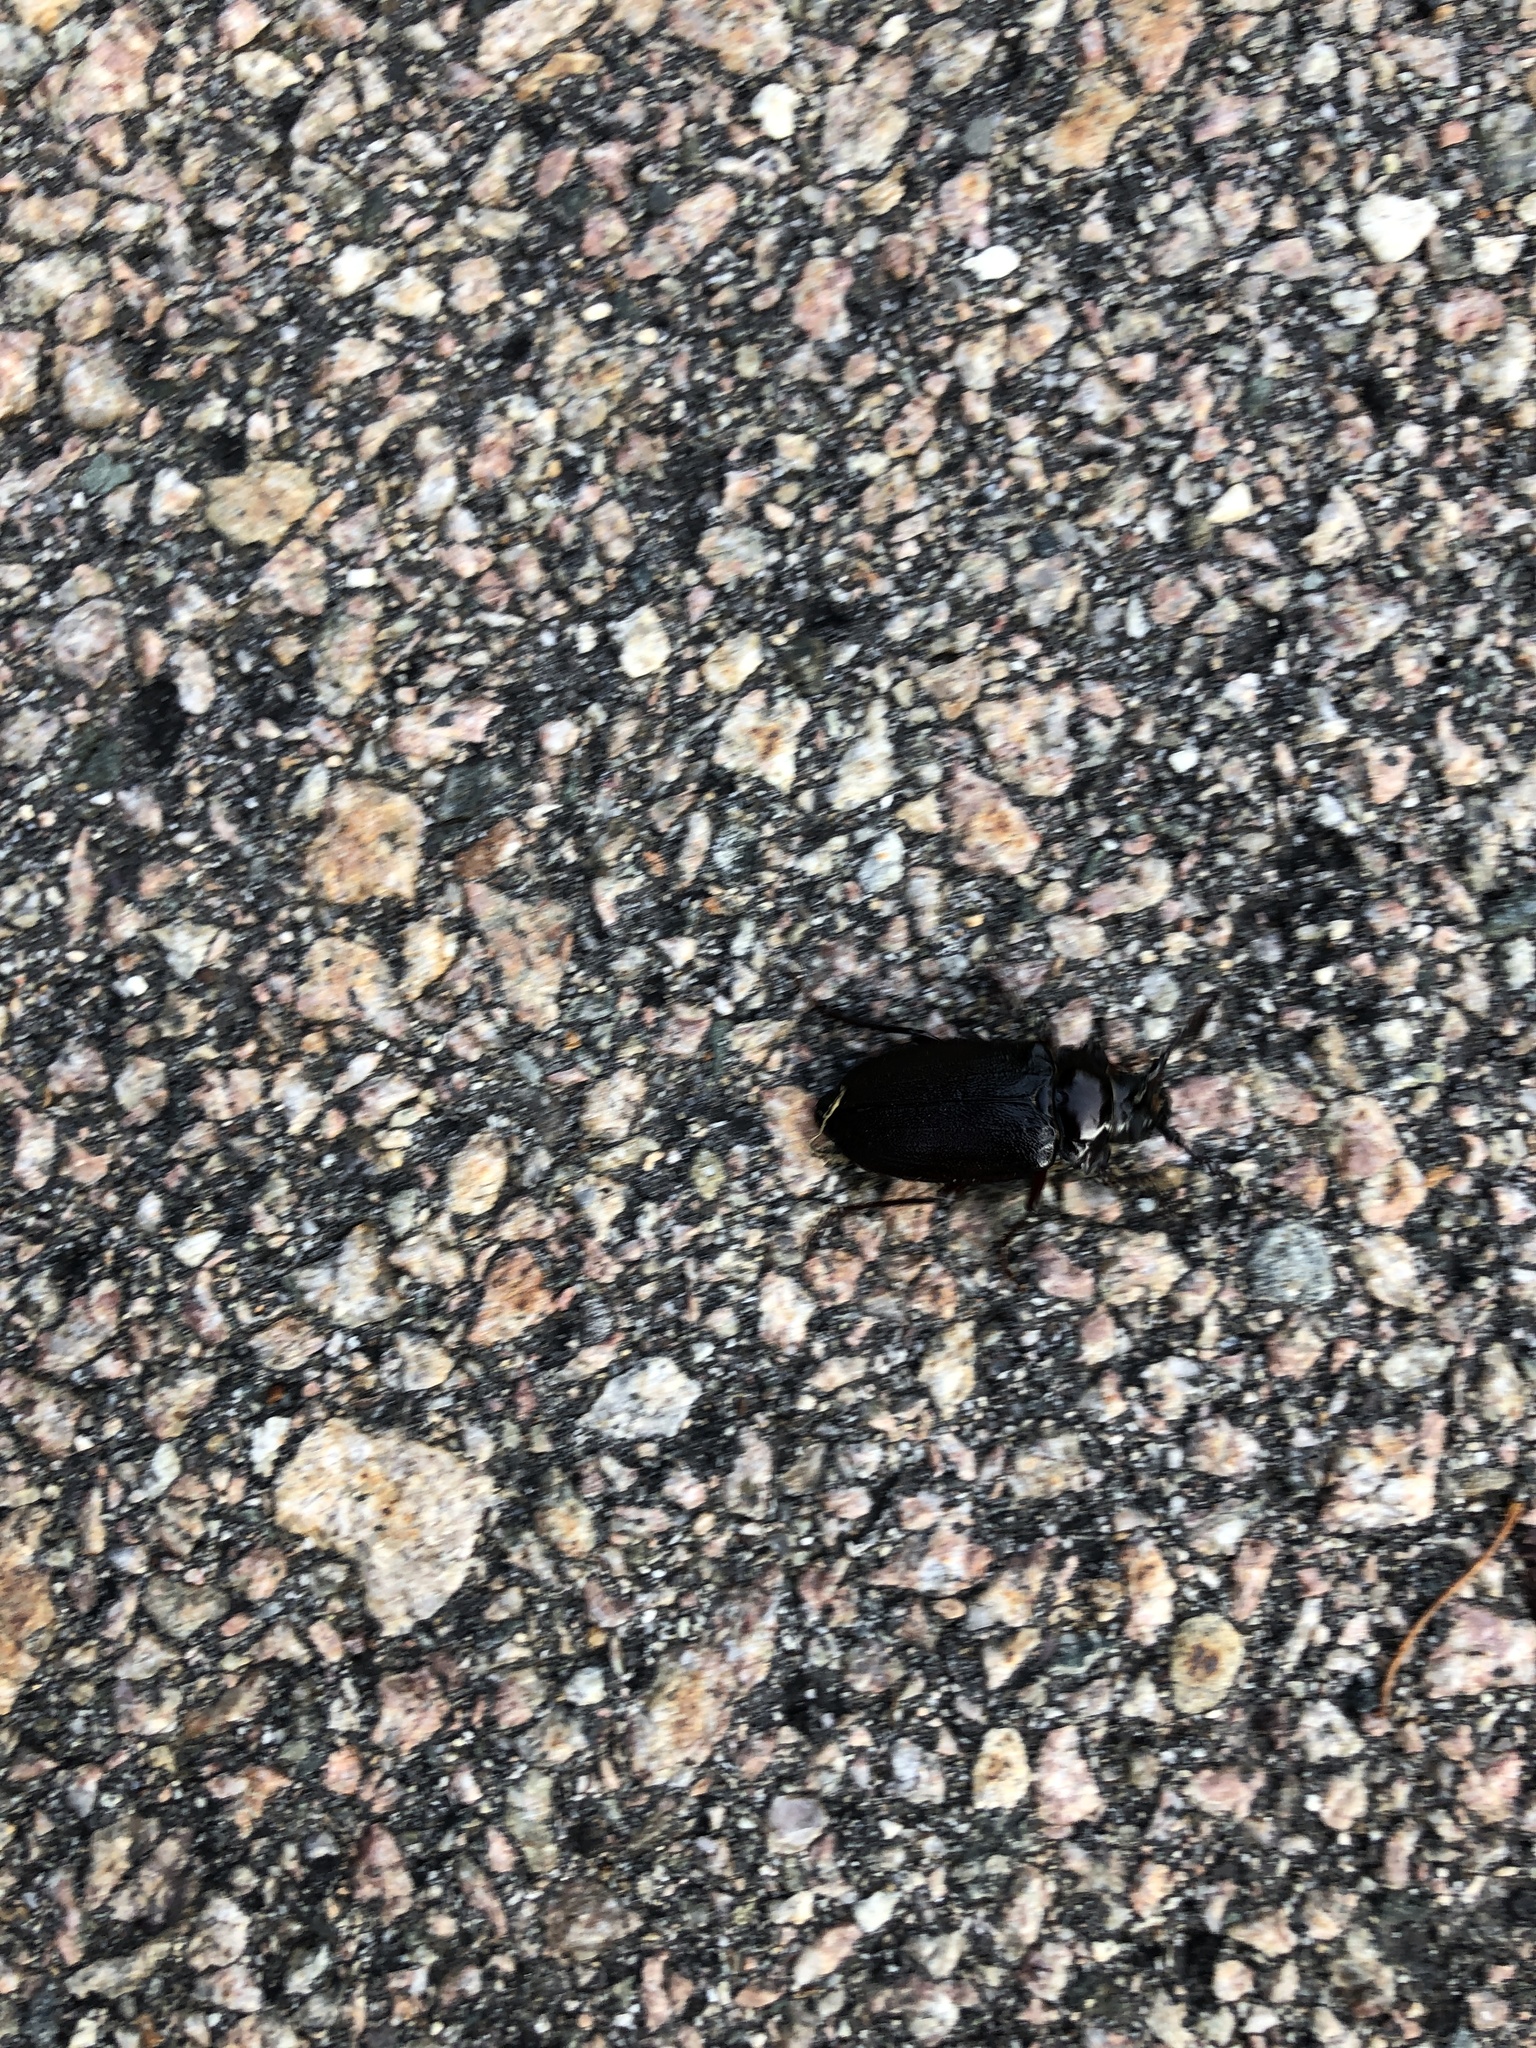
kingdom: Animalia
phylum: Arthropoda
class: Insecta
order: Coleoptera
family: Cerambycidae
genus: Prionus
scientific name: Prionus laticollis
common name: Broad necked prionus
